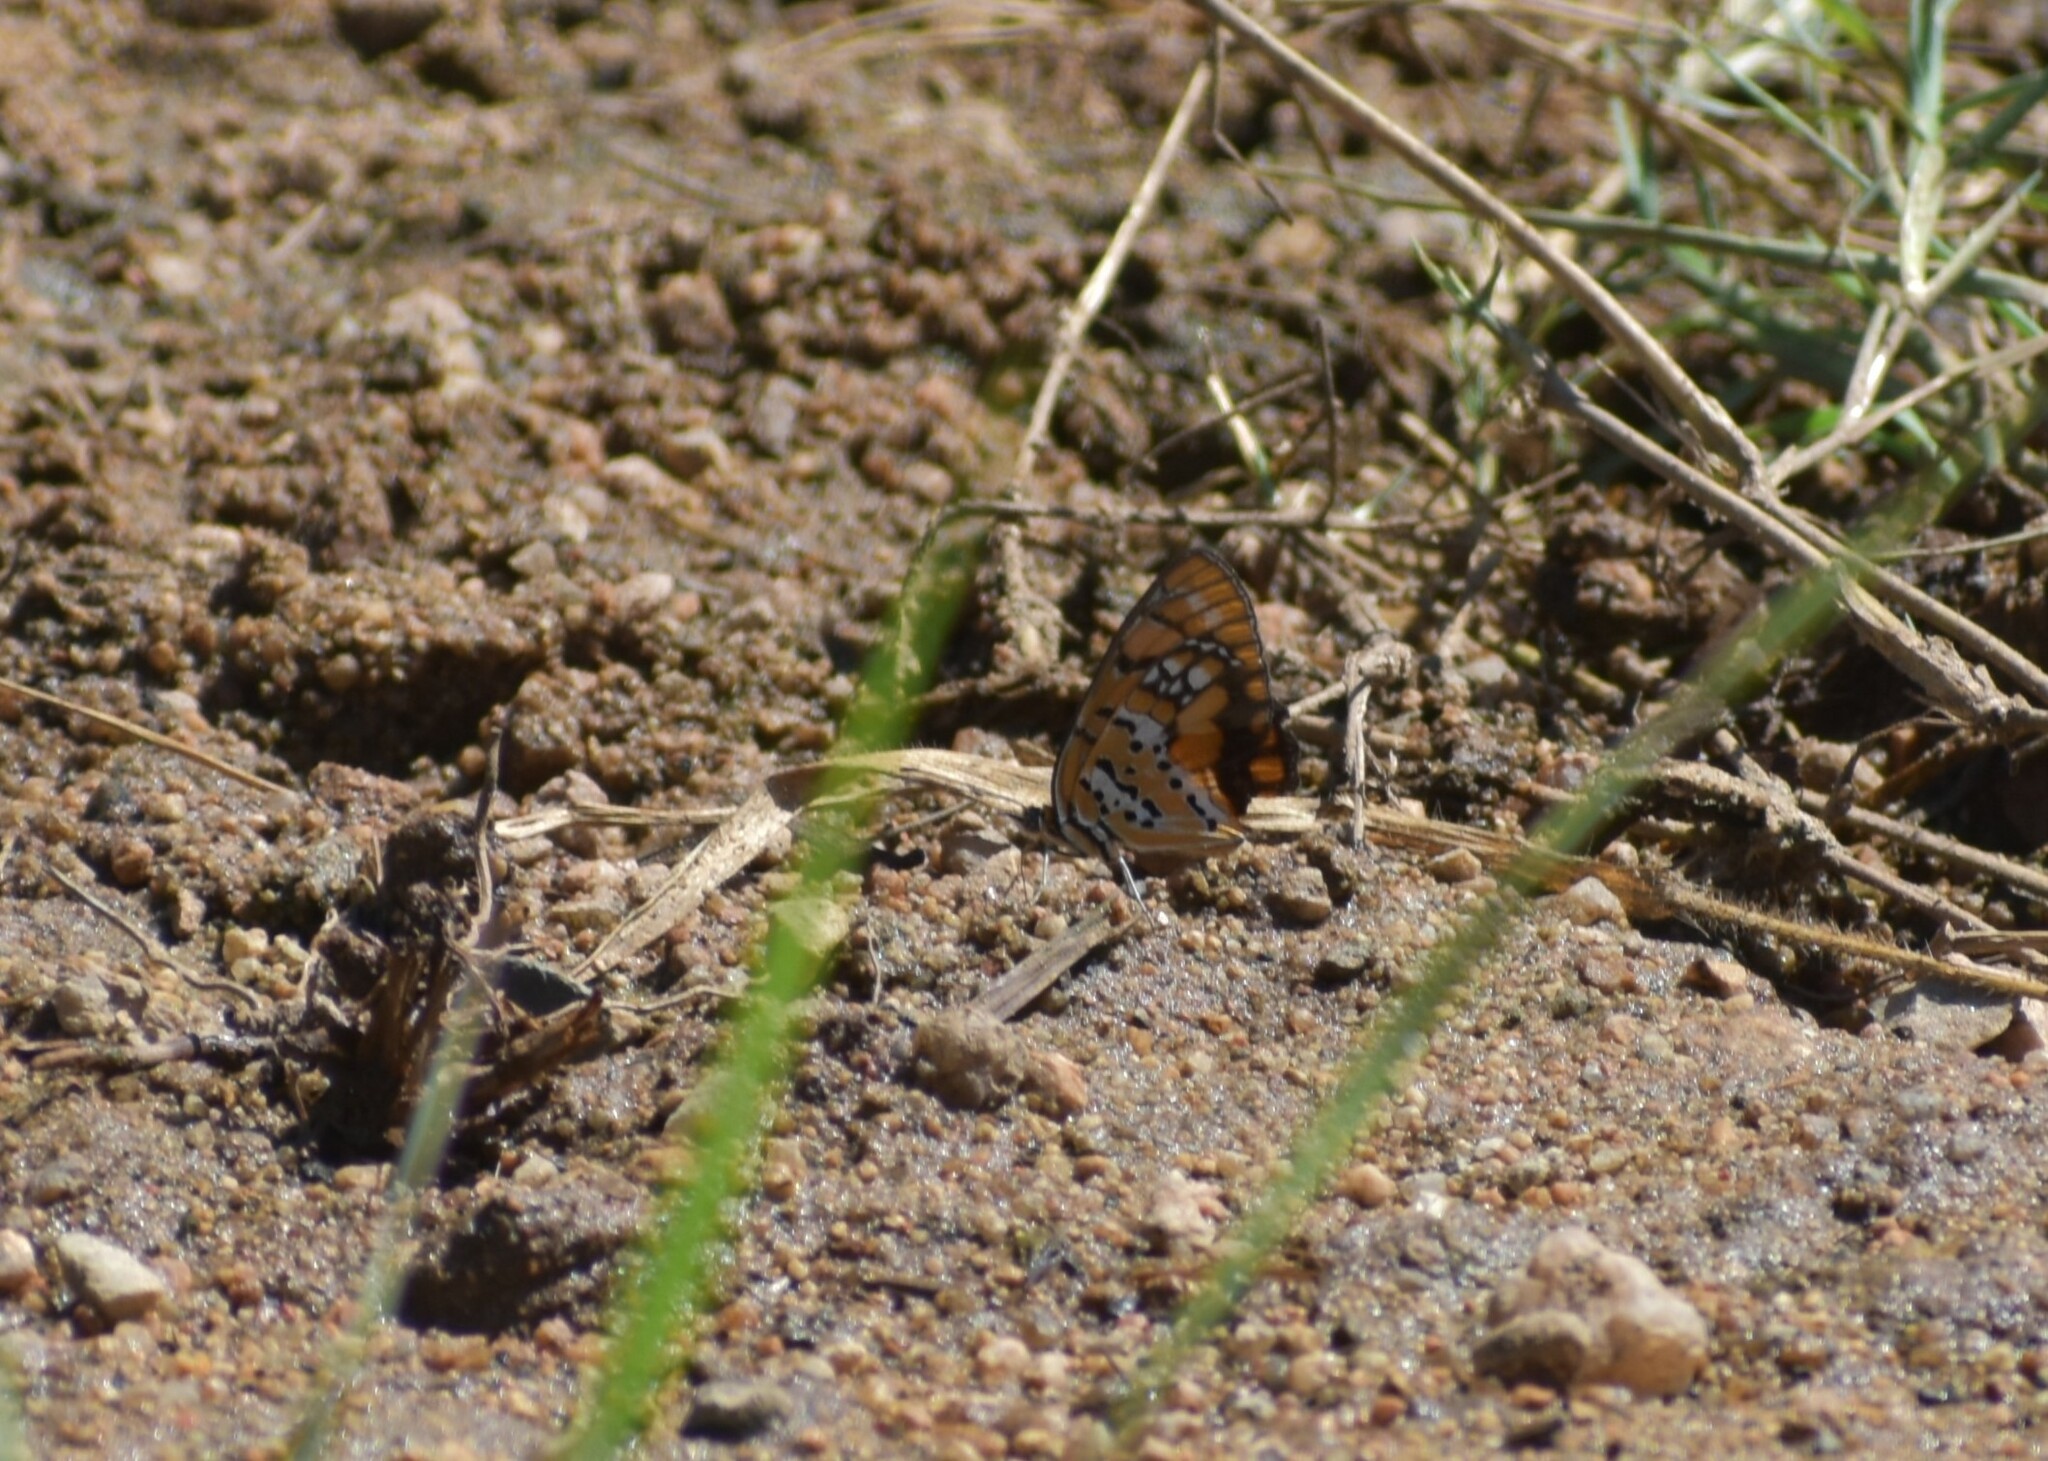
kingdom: Animalia
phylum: Arthropoda
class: Insecta
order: Lepidoptera
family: Nymphalidae
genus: Byblia
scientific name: Byblia ilithyia
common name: Spotted joker
